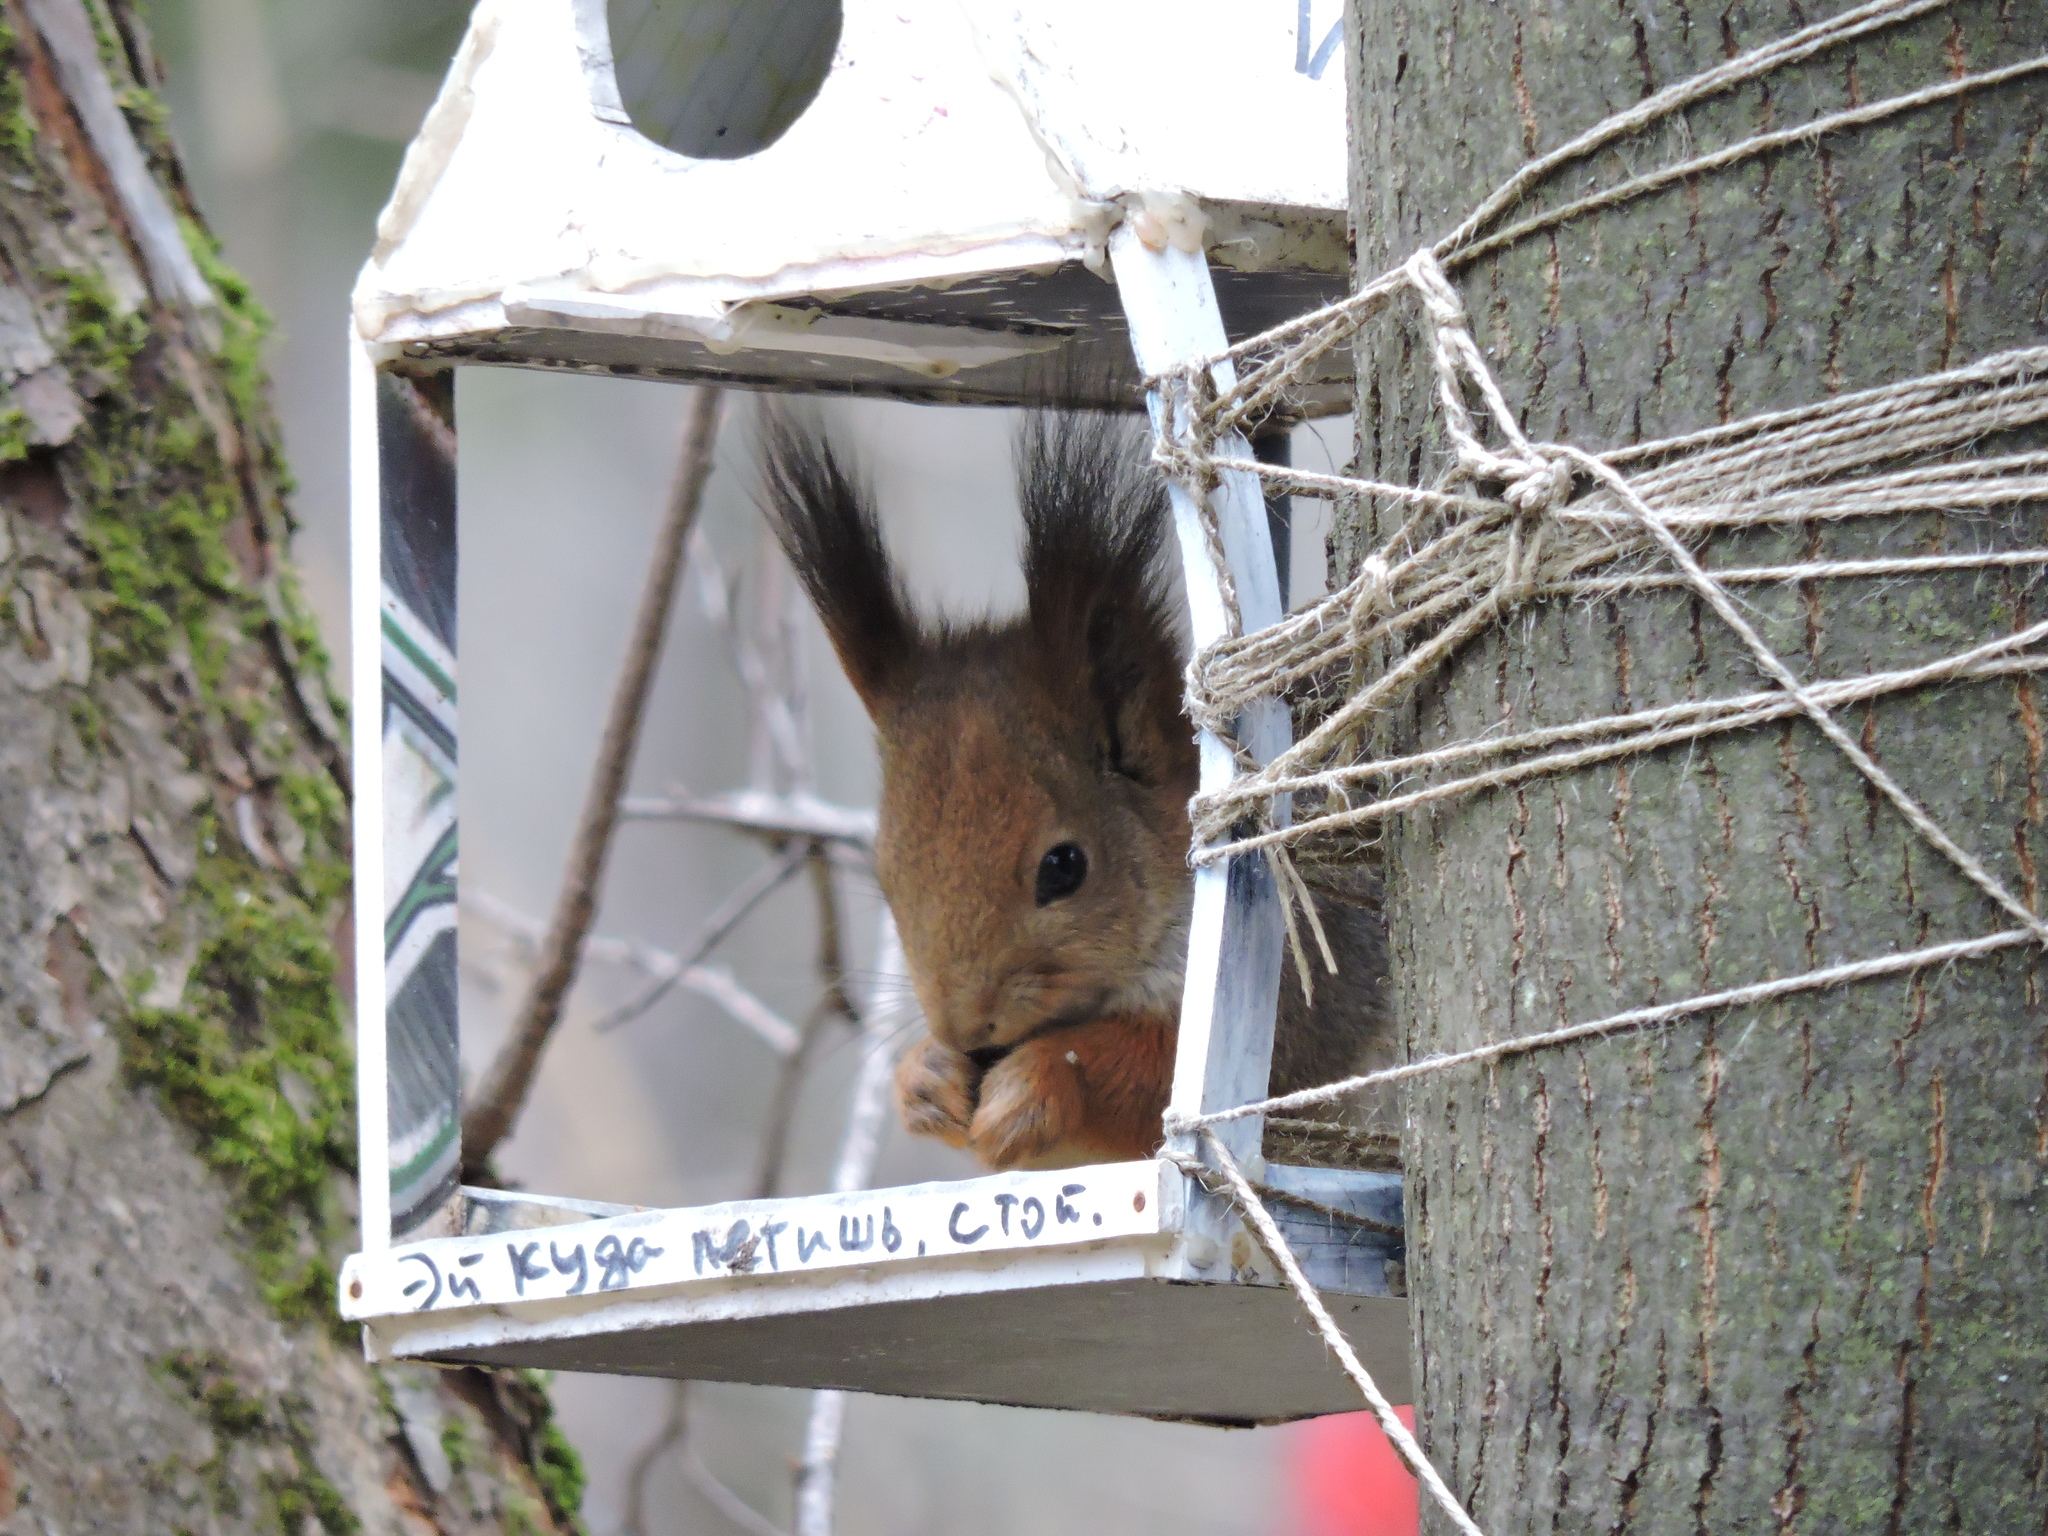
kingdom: Animalia
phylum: Chordata
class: Mammalia
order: Rodentia
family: Sciuridae
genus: Sciurus
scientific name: Sciurus vulgaris
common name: Eurasian red squirrel
